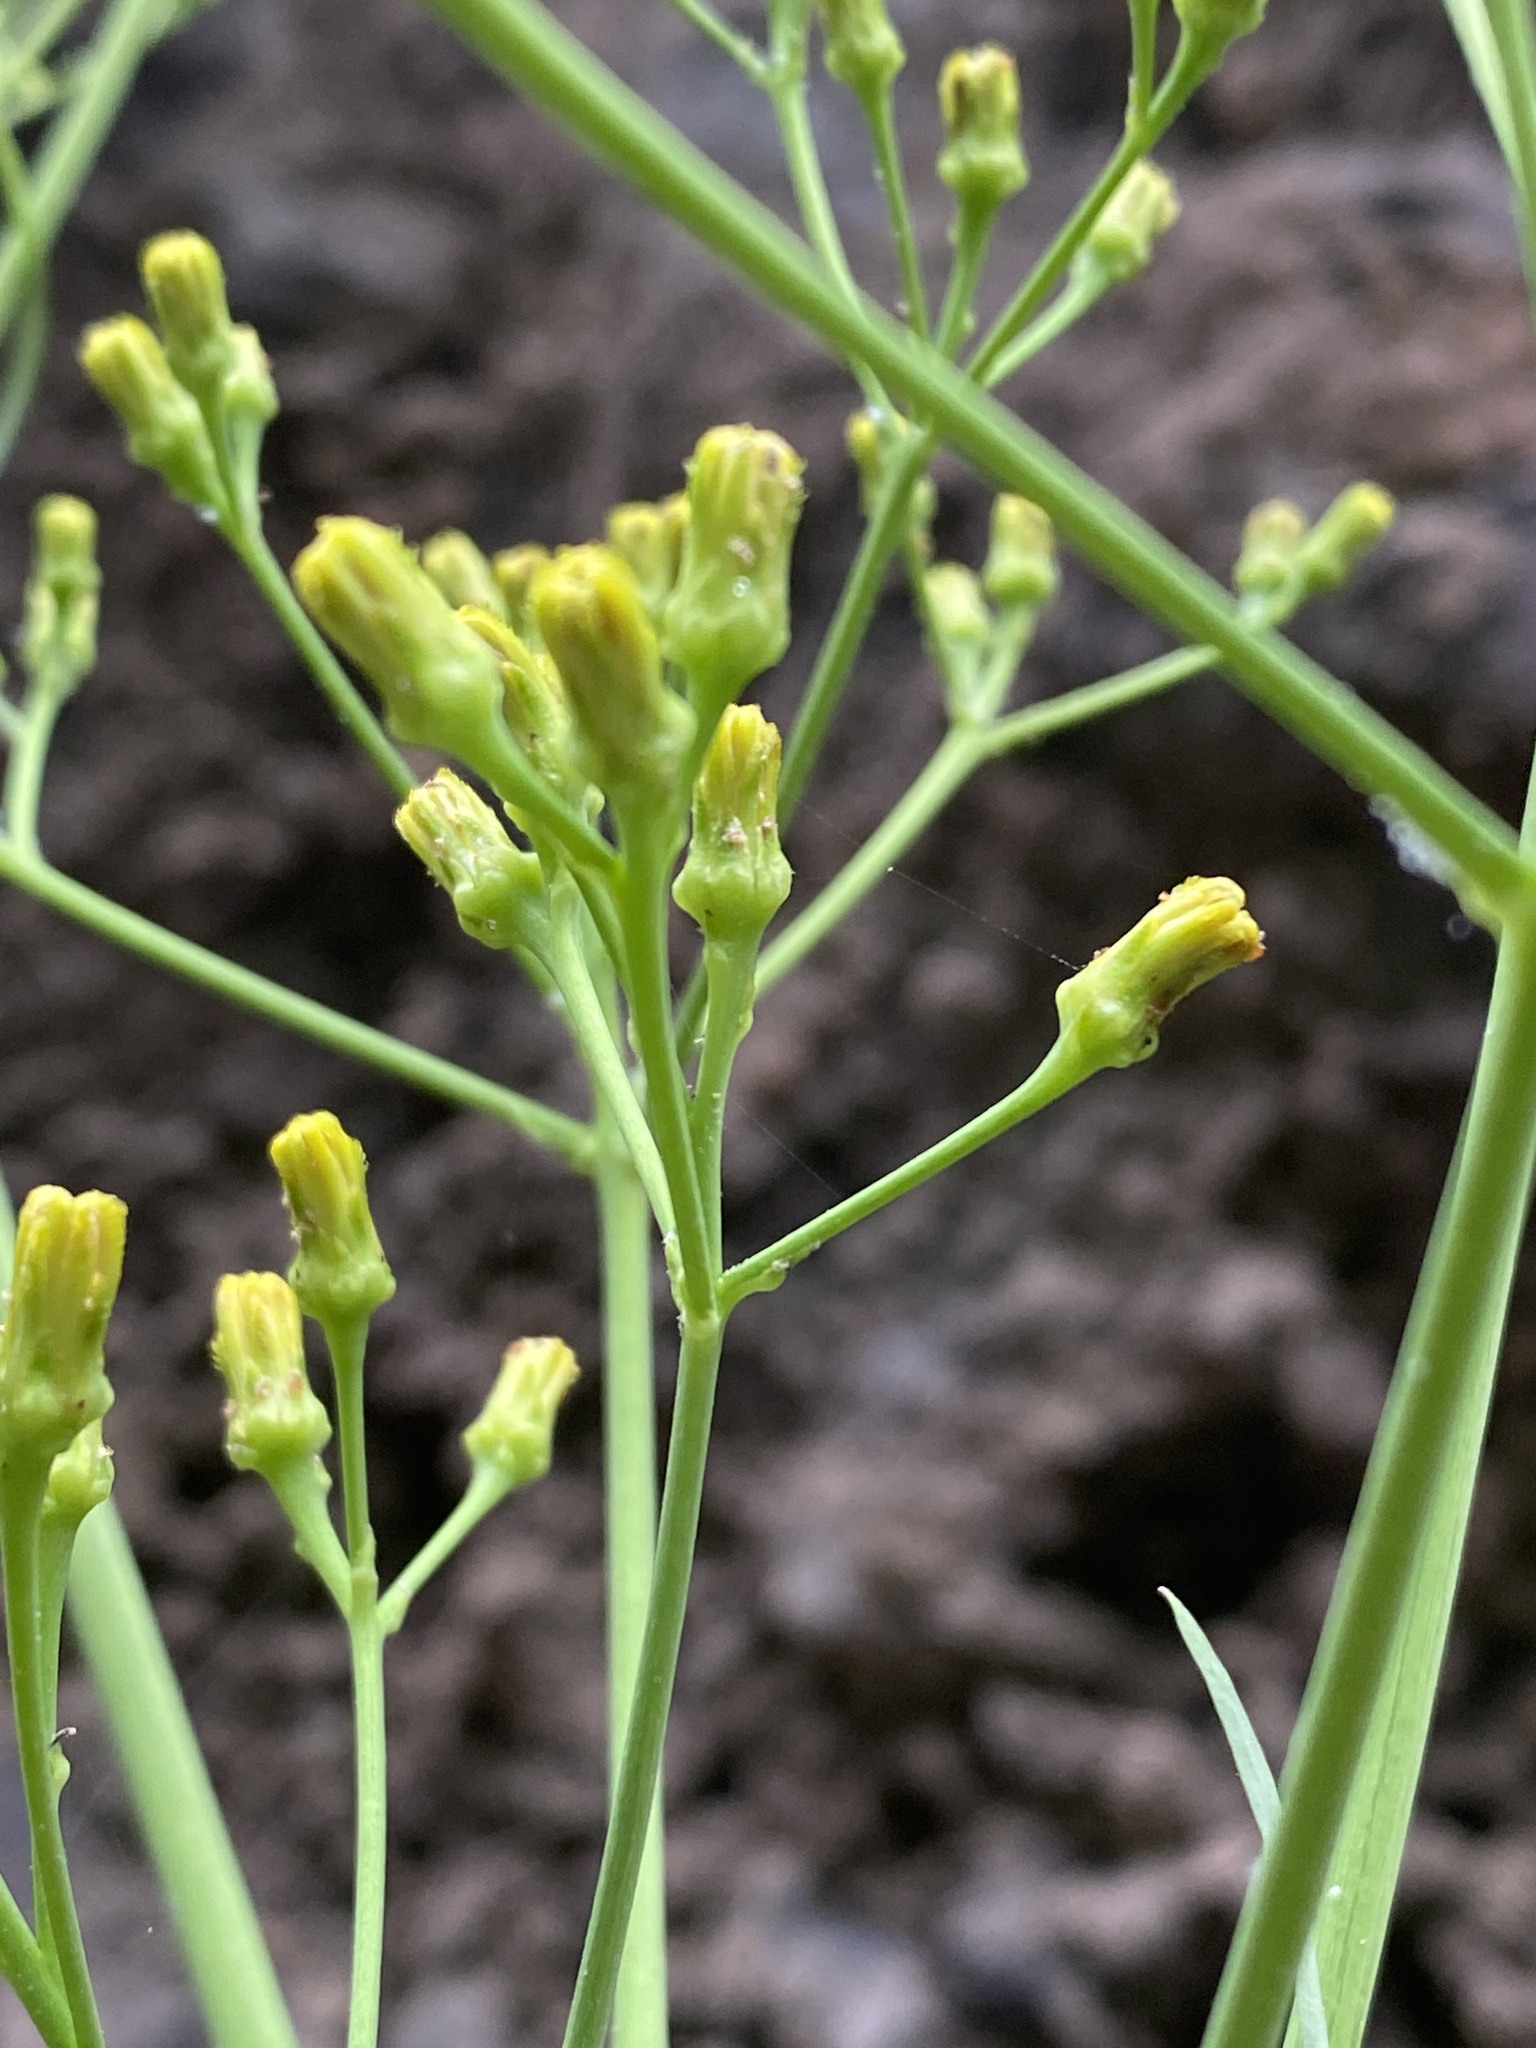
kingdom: Plantae
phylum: Tracheophyta
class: Magnoliopsida
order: Asterales
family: Asteraceae
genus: Sonchus
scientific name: Sonchus palmensis
